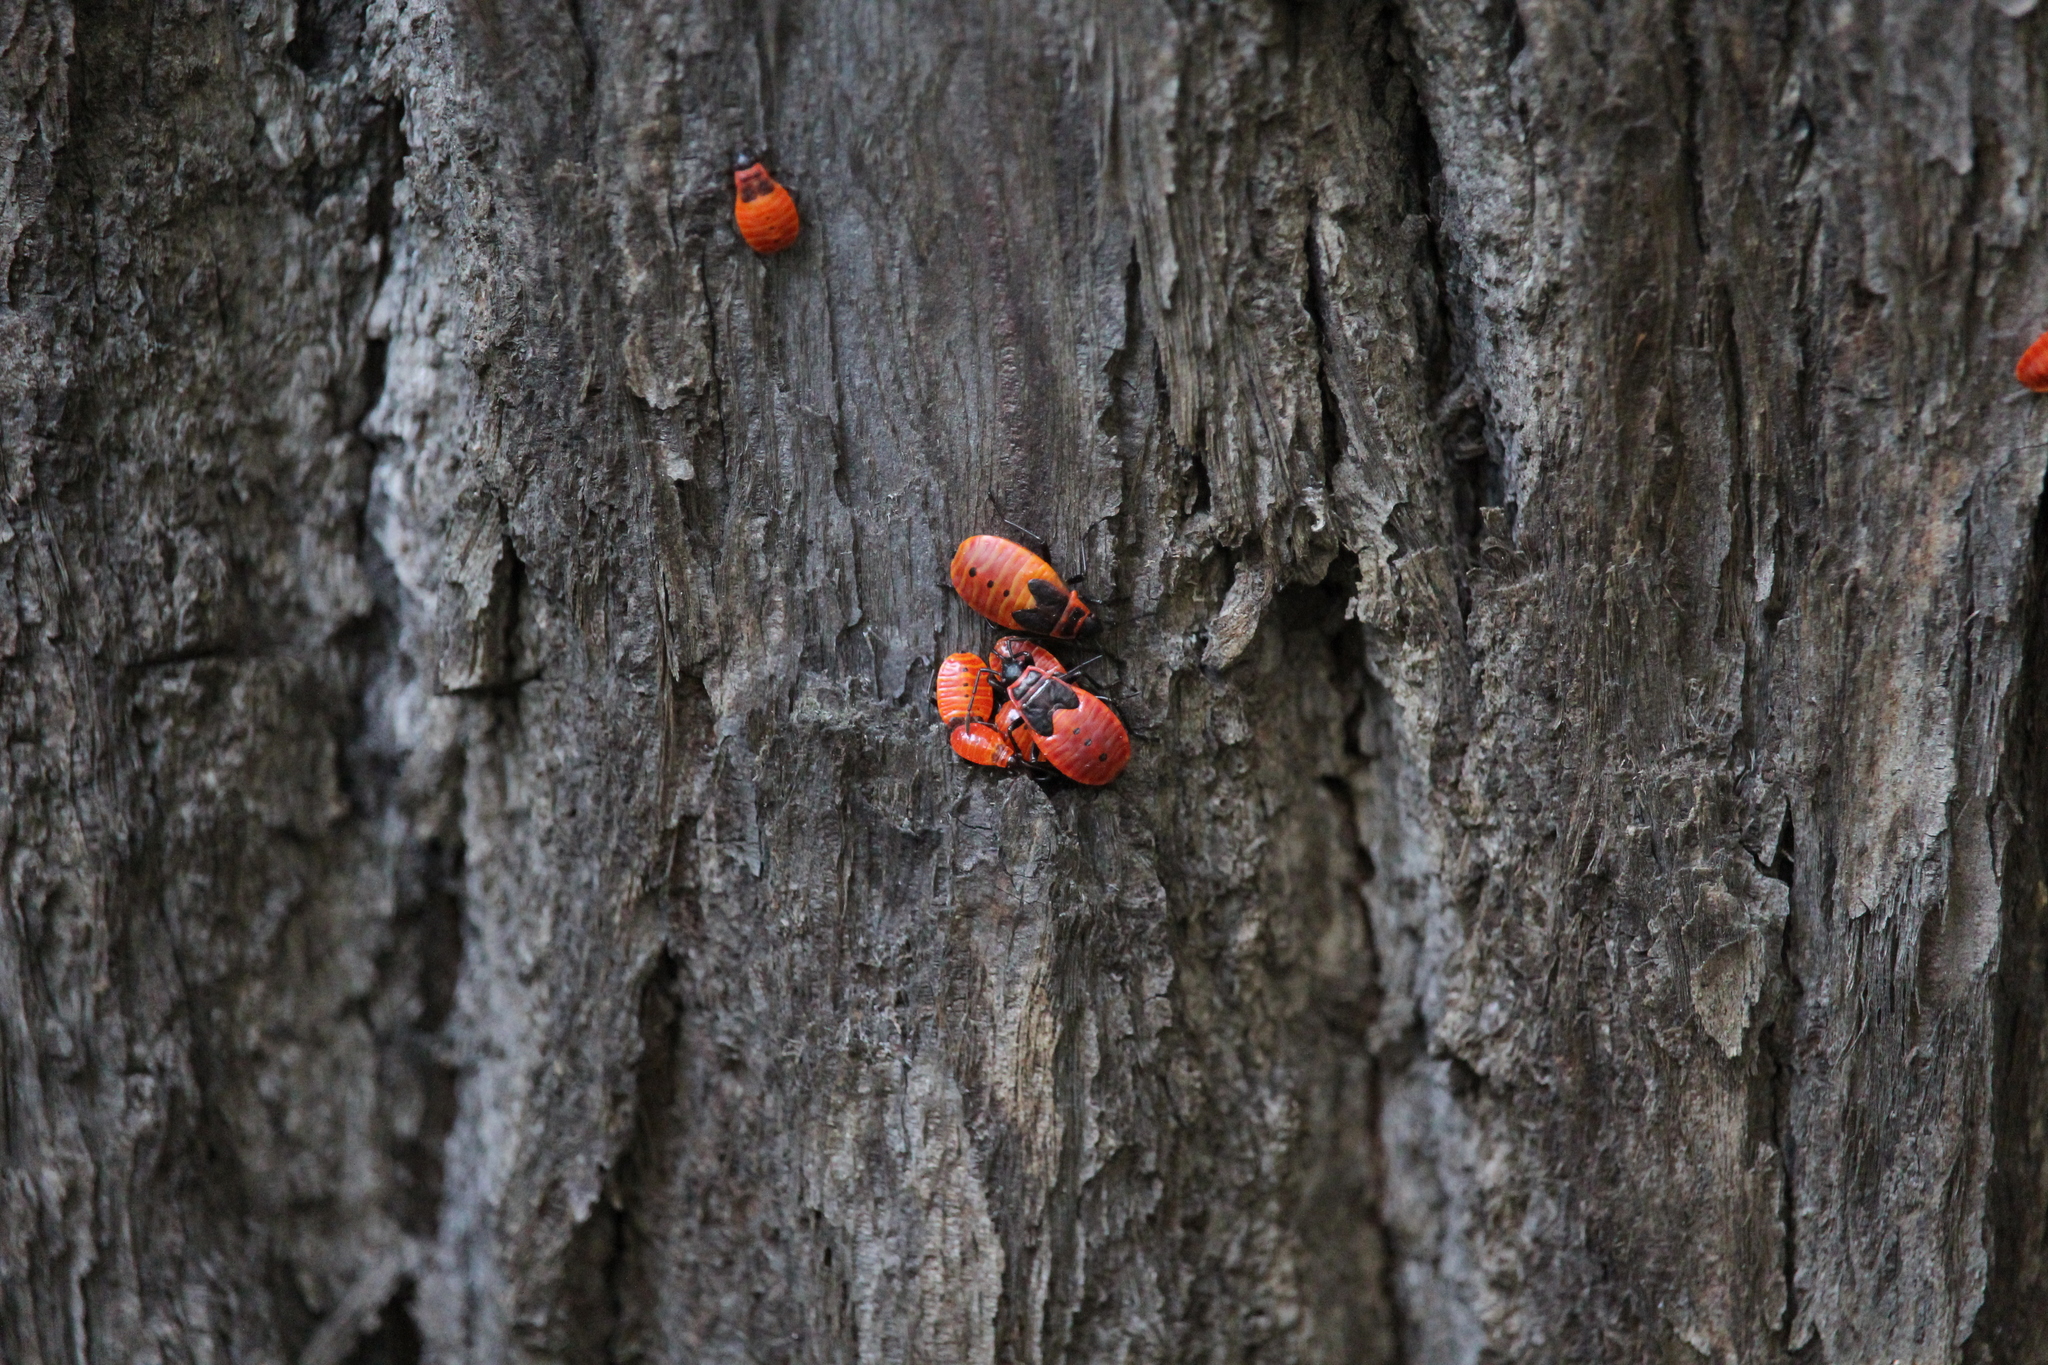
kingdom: Animalia
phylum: Arthropoda
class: Insecta
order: Hemiptera
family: Pyrrhocoridae
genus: Pyrrhocoris
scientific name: Pyrrhocoris apterus
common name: Firebug
